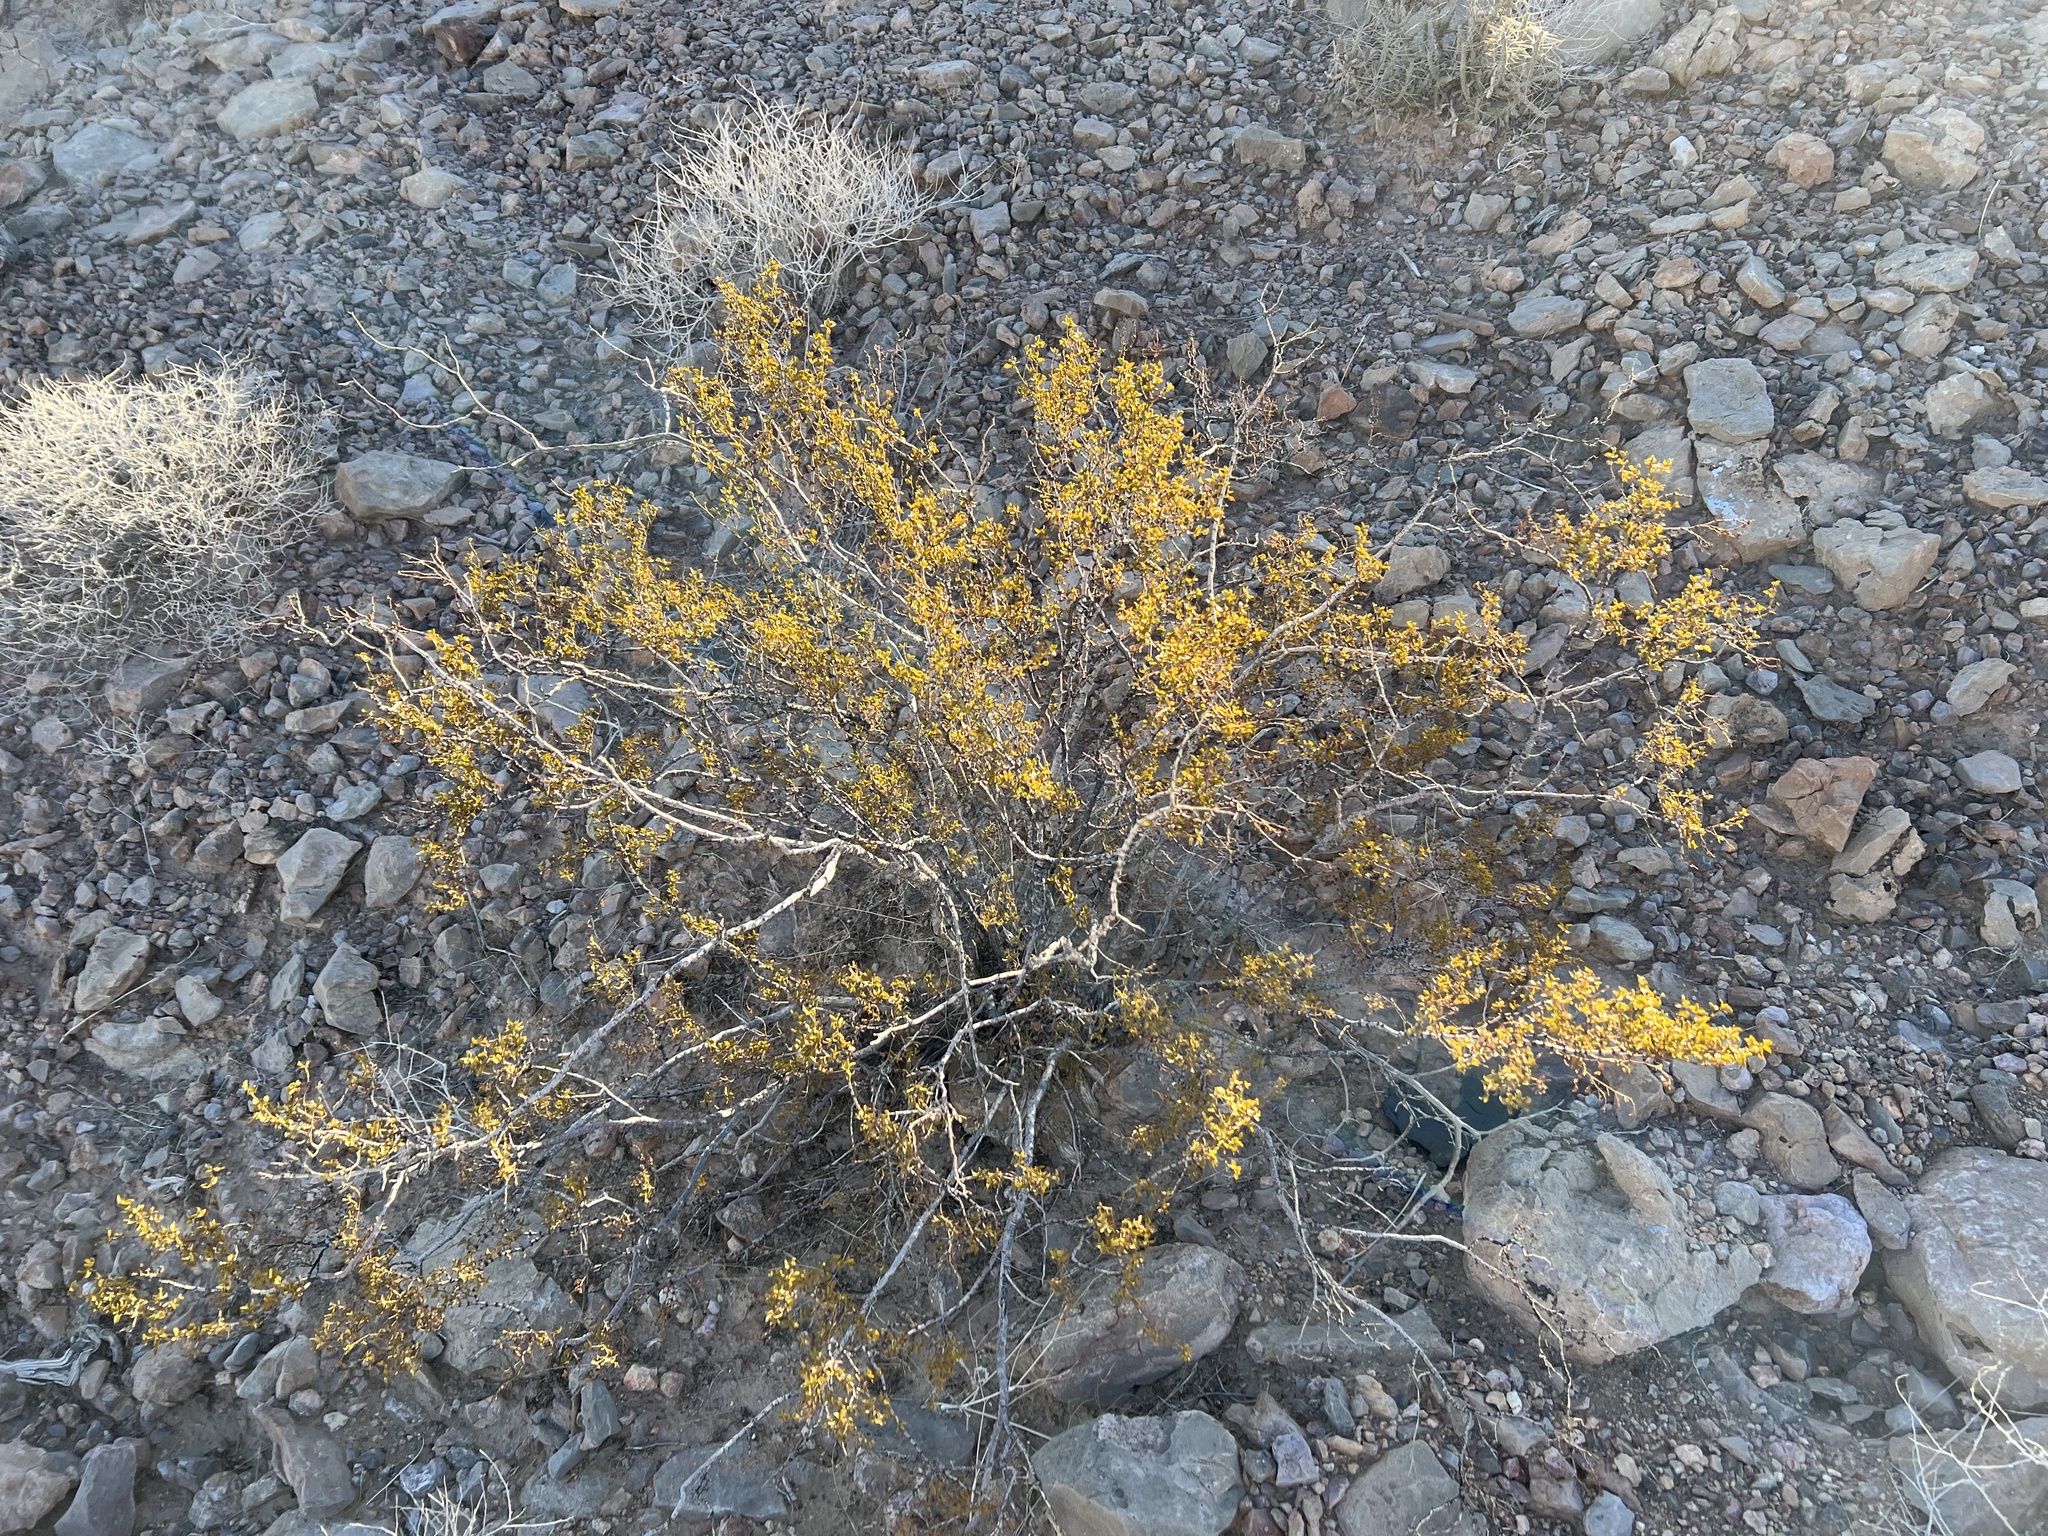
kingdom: Plantae
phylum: Tracheophyta
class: Magnoliopsida
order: Zygophyllales
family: Zygophyllaceae
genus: Larrea
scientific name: Larrea tridentata
